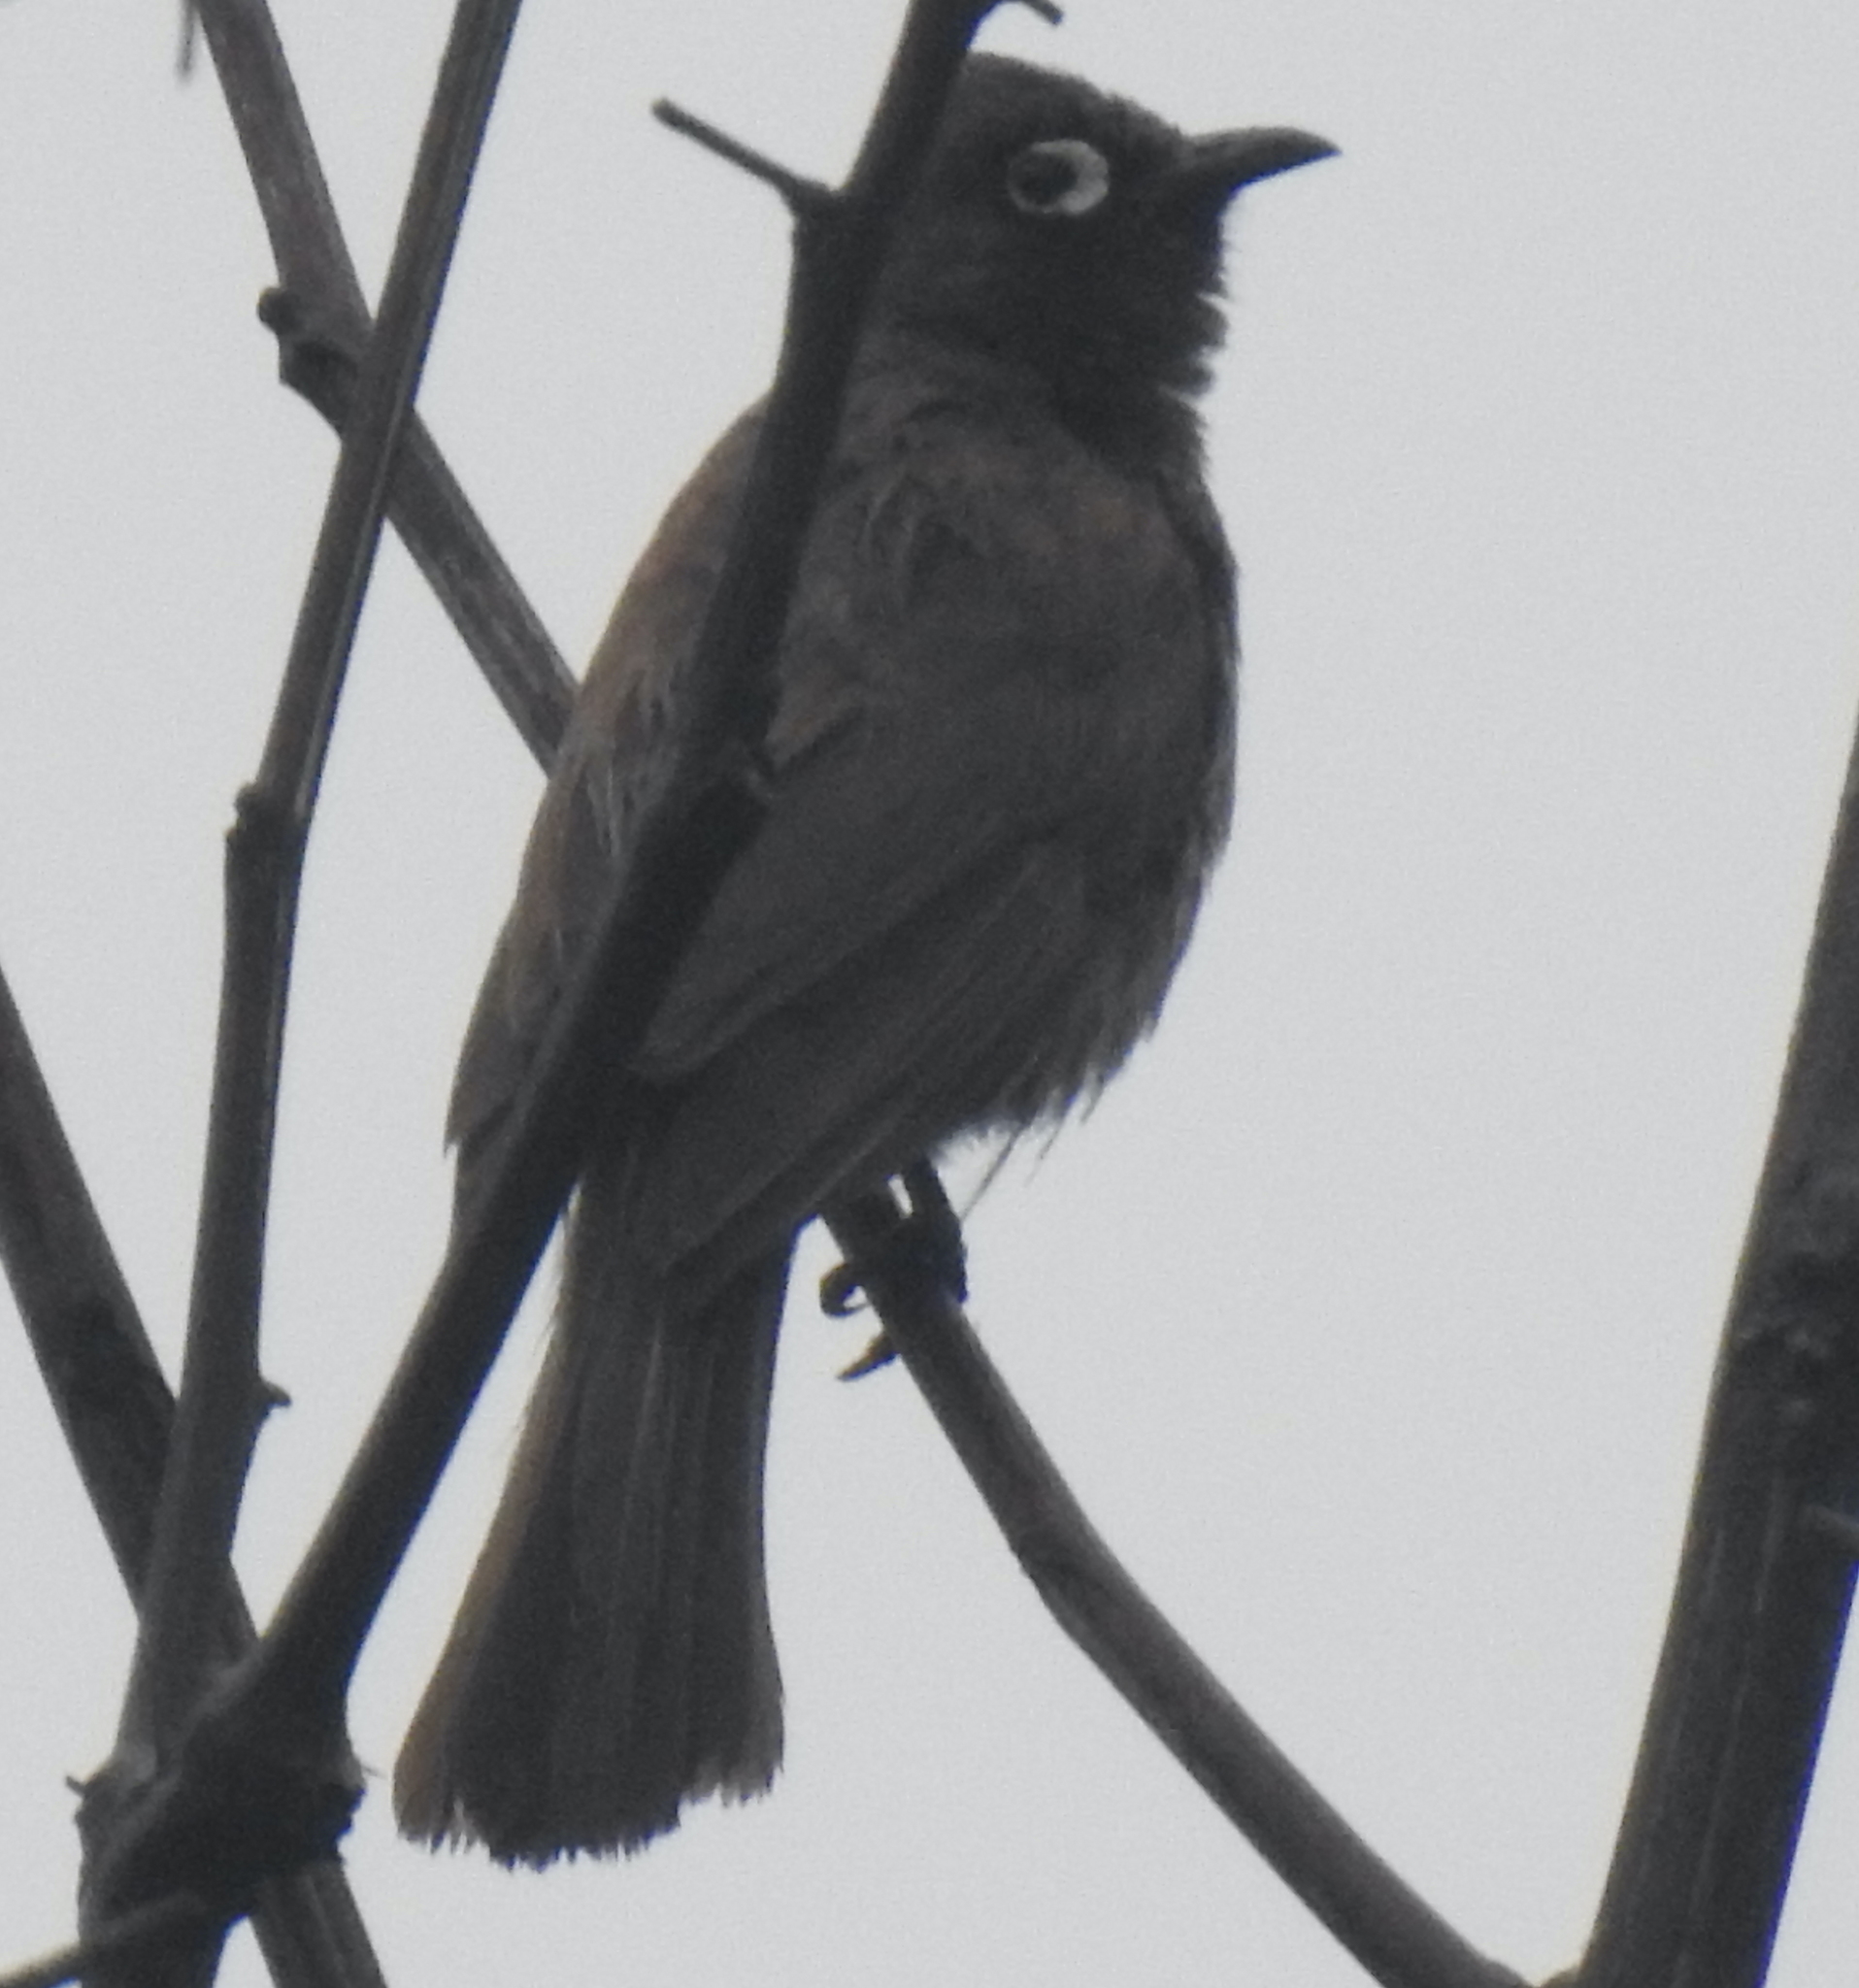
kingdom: Animalia
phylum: Chordata
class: Aves
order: Passeriformes
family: Pycnonotidae
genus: Pycnonotus
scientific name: Pycnonotus capensis
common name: Cape bulbul
